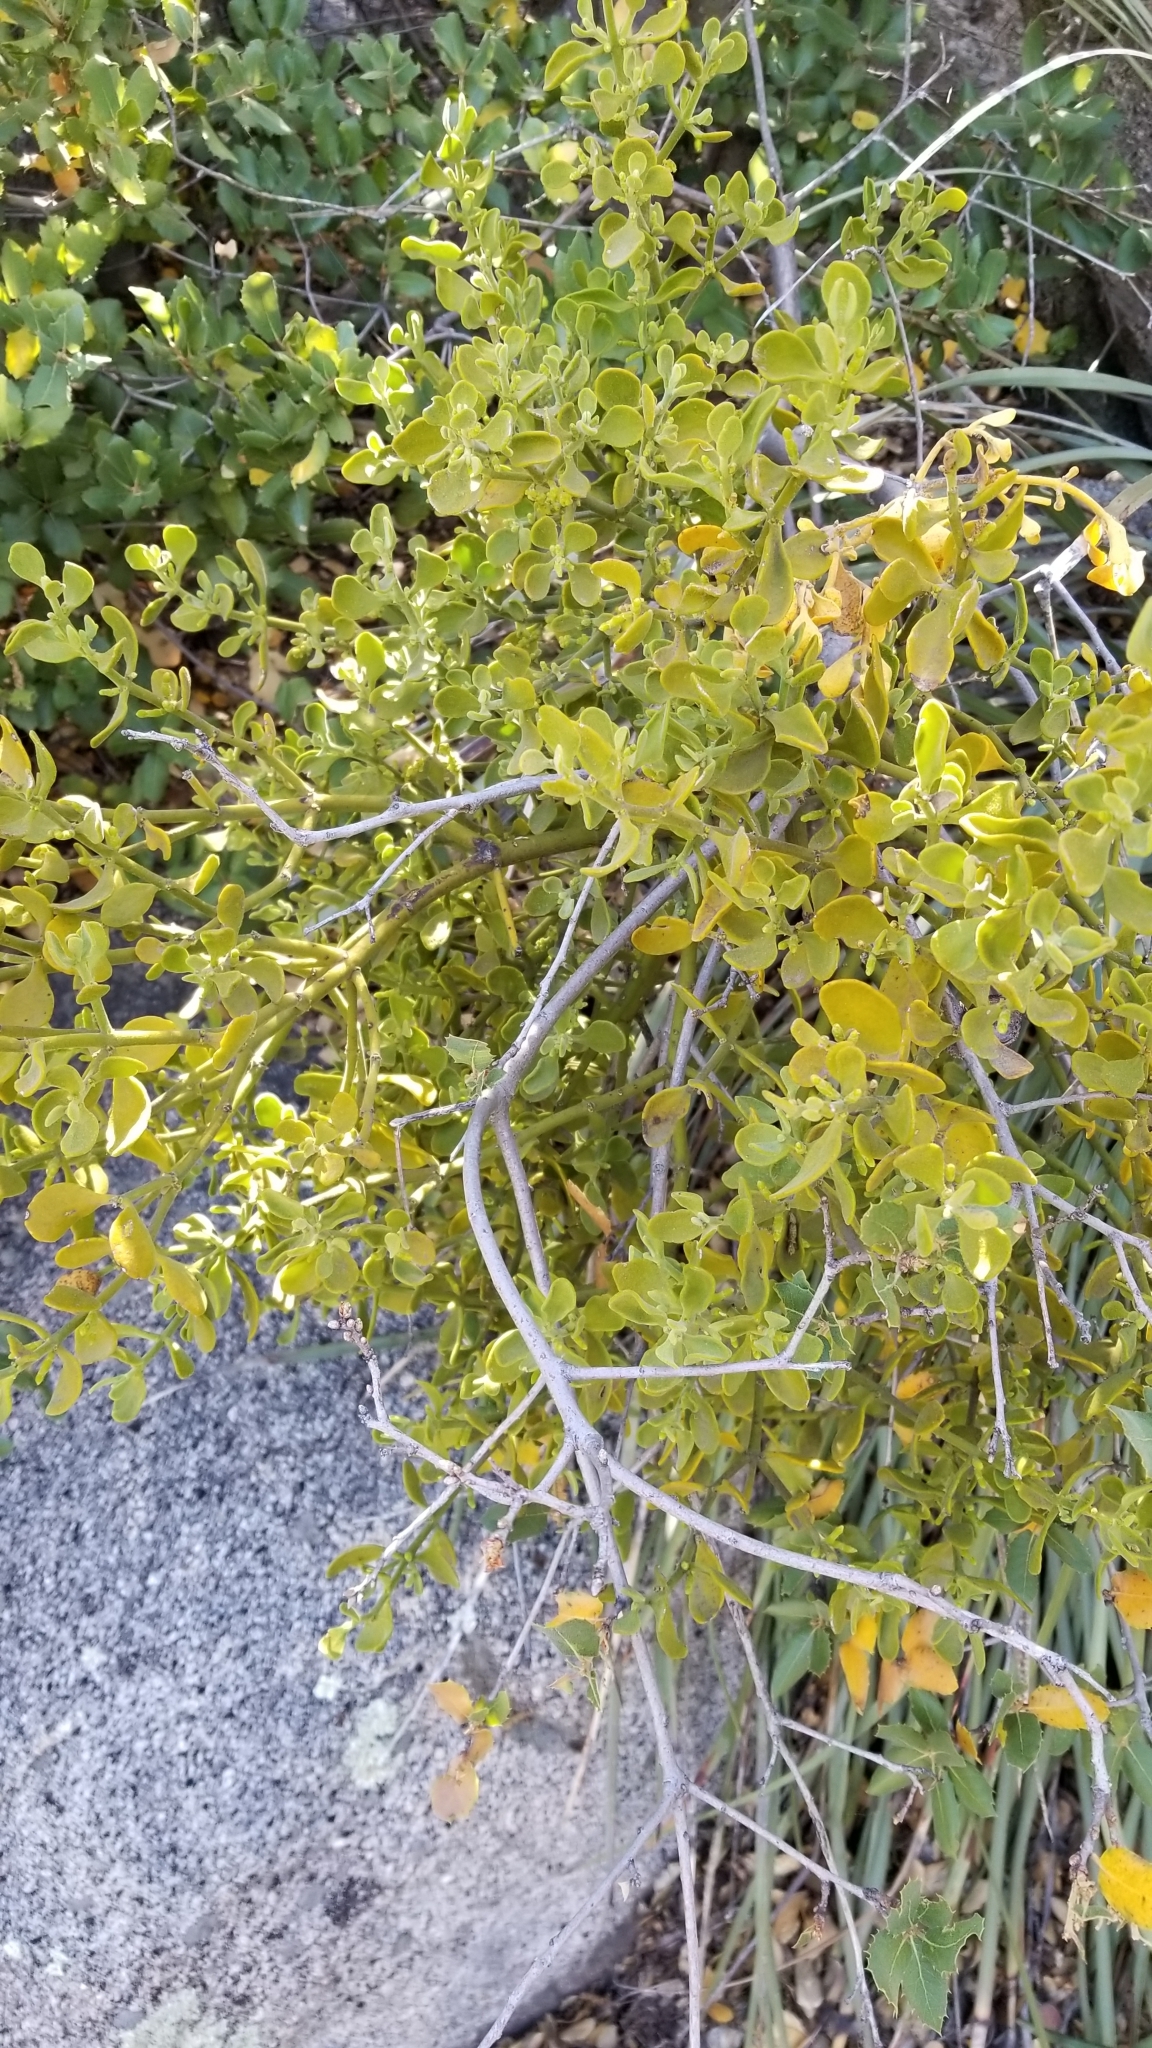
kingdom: Plantae
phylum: Tracheophyta
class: Magnoliopsida
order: Santalales
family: Viscaceae
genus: Phoradendron
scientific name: Phoradendron leucarpum
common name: Pacific mistletoe
